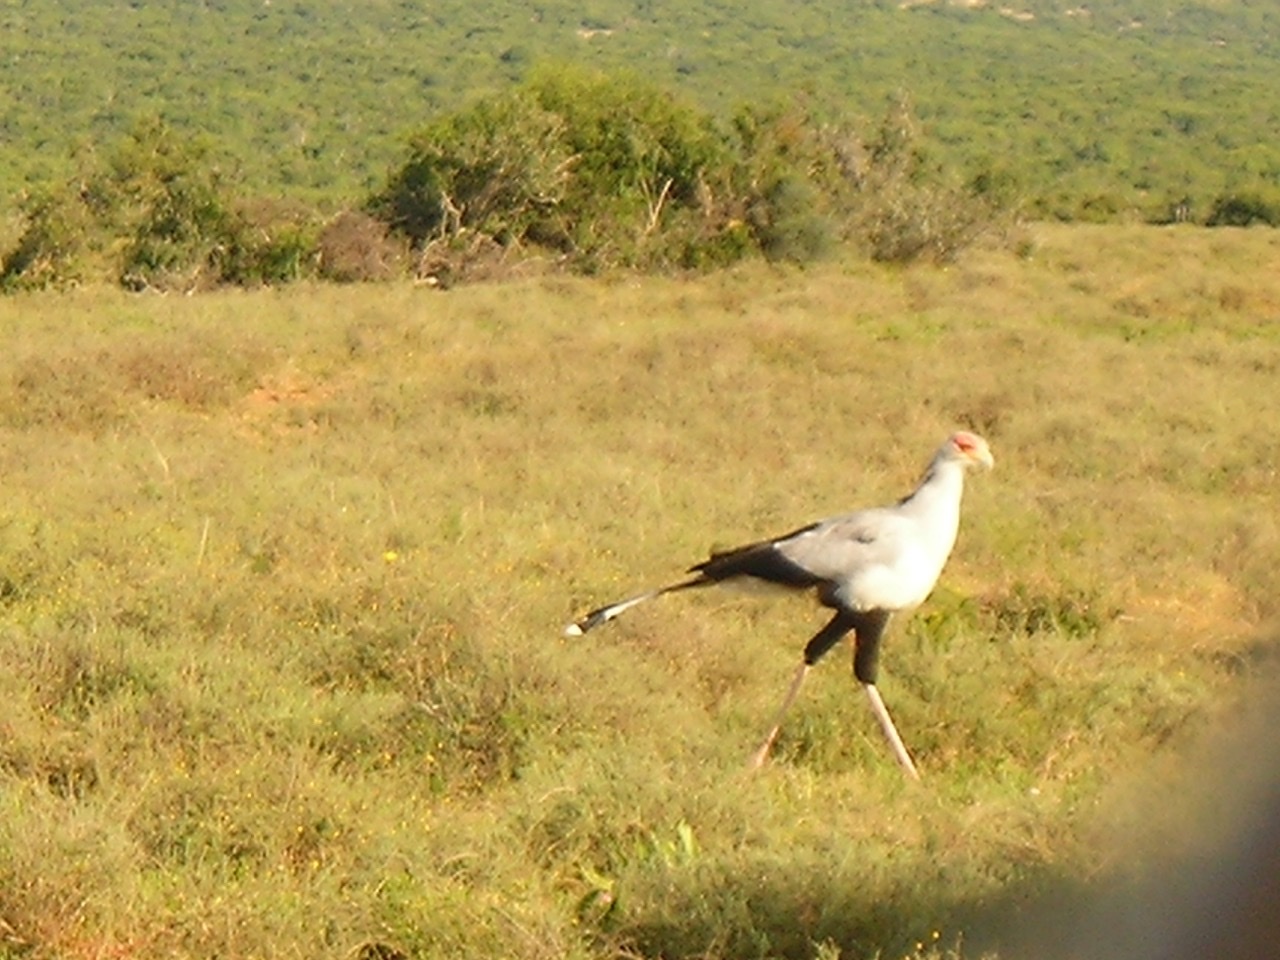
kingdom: Animalia
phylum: Chordata
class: Aves
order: Accipitriformes
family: Sagittariidae
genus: Sagittarius
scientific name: Sagittarius serpentarius
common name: Secretarybird
